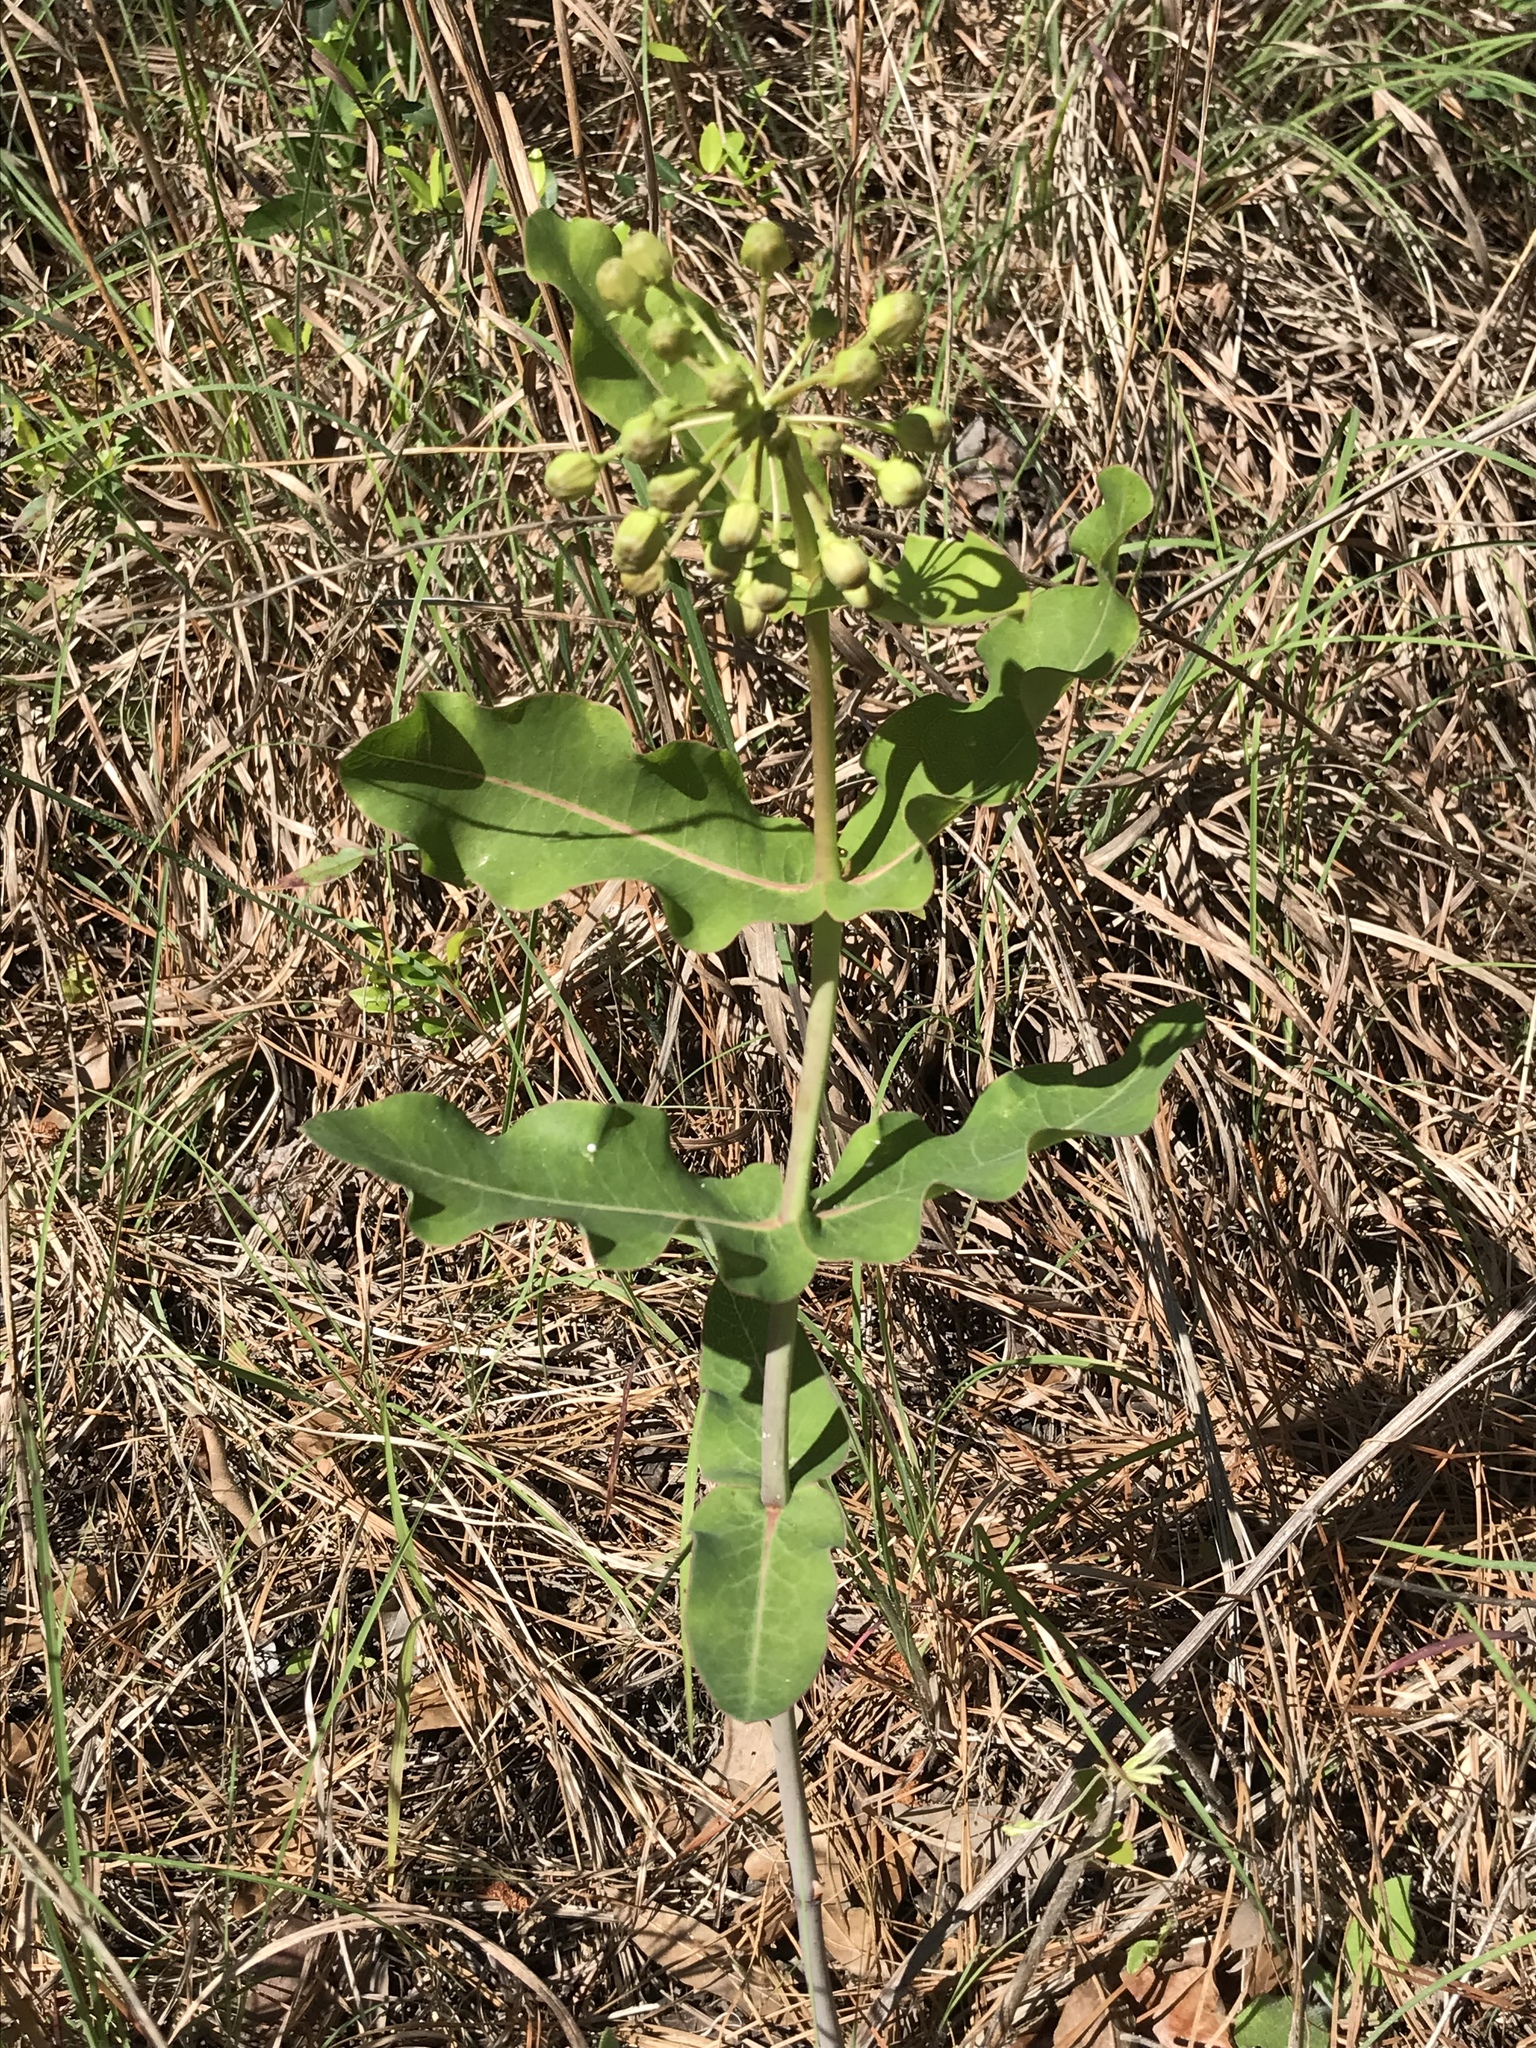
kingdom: Plantae
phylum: Tracheophyta
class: Magnoliopsida
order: Gentianales
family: Apocynaceae
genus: Asclepias
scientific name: Asclepias amplexicaulis
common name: Blunt-leaf milkweed
